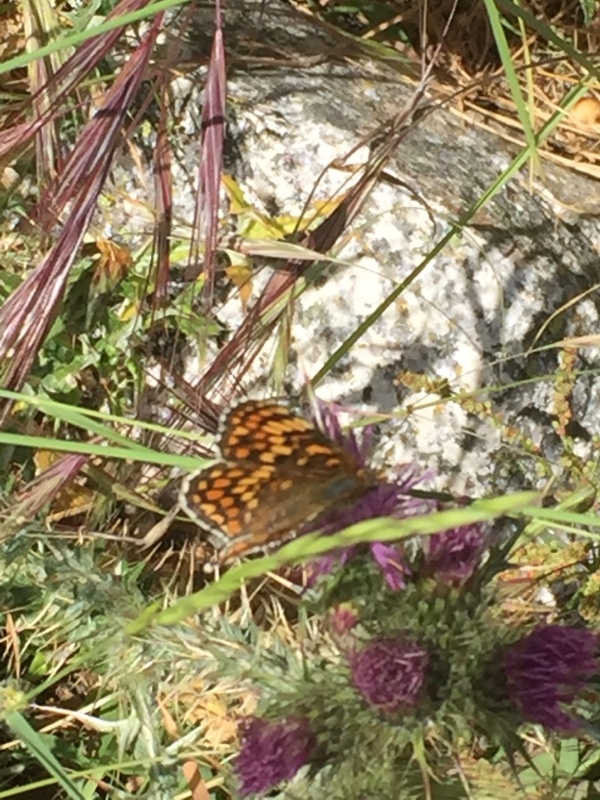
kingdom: Animalia
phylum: Arthropoda
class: Insecta
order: Lepidoptera
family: Nymphalidae
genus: Melitaea
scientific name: Melitaea phoebe
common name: Knapweed fritillary
